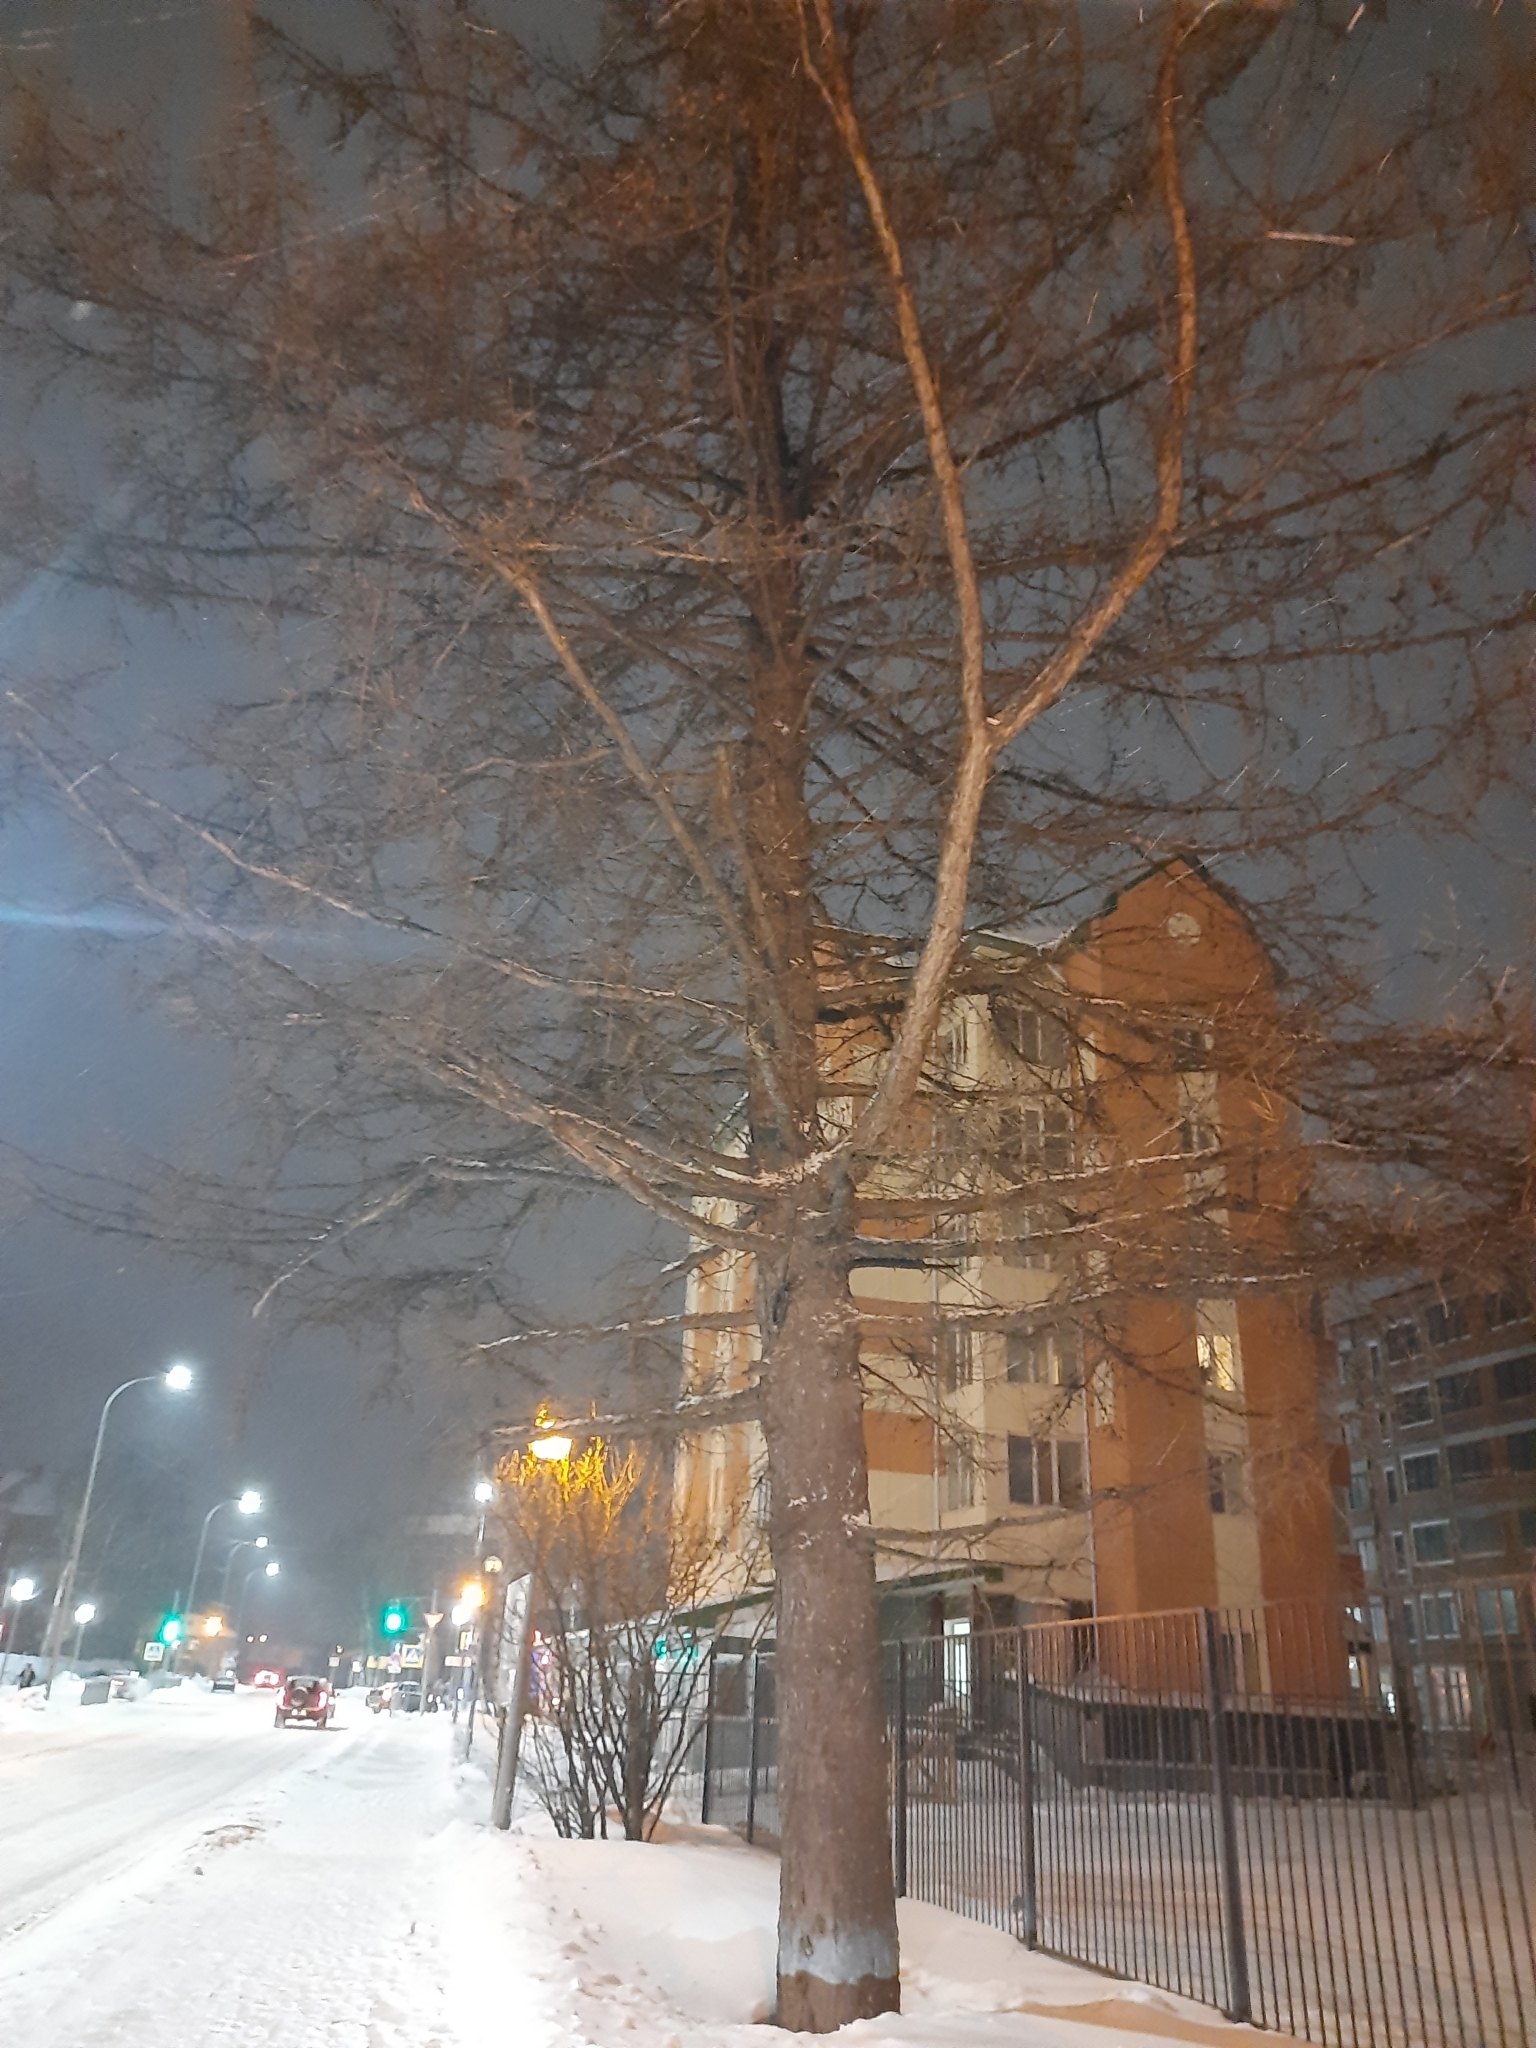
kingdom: Plantae
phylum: Tracheophyta
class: Pinopsida
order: Pinales
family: Pinaceae
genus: Larix
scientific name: Larix sibirica
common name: Siberian larch
